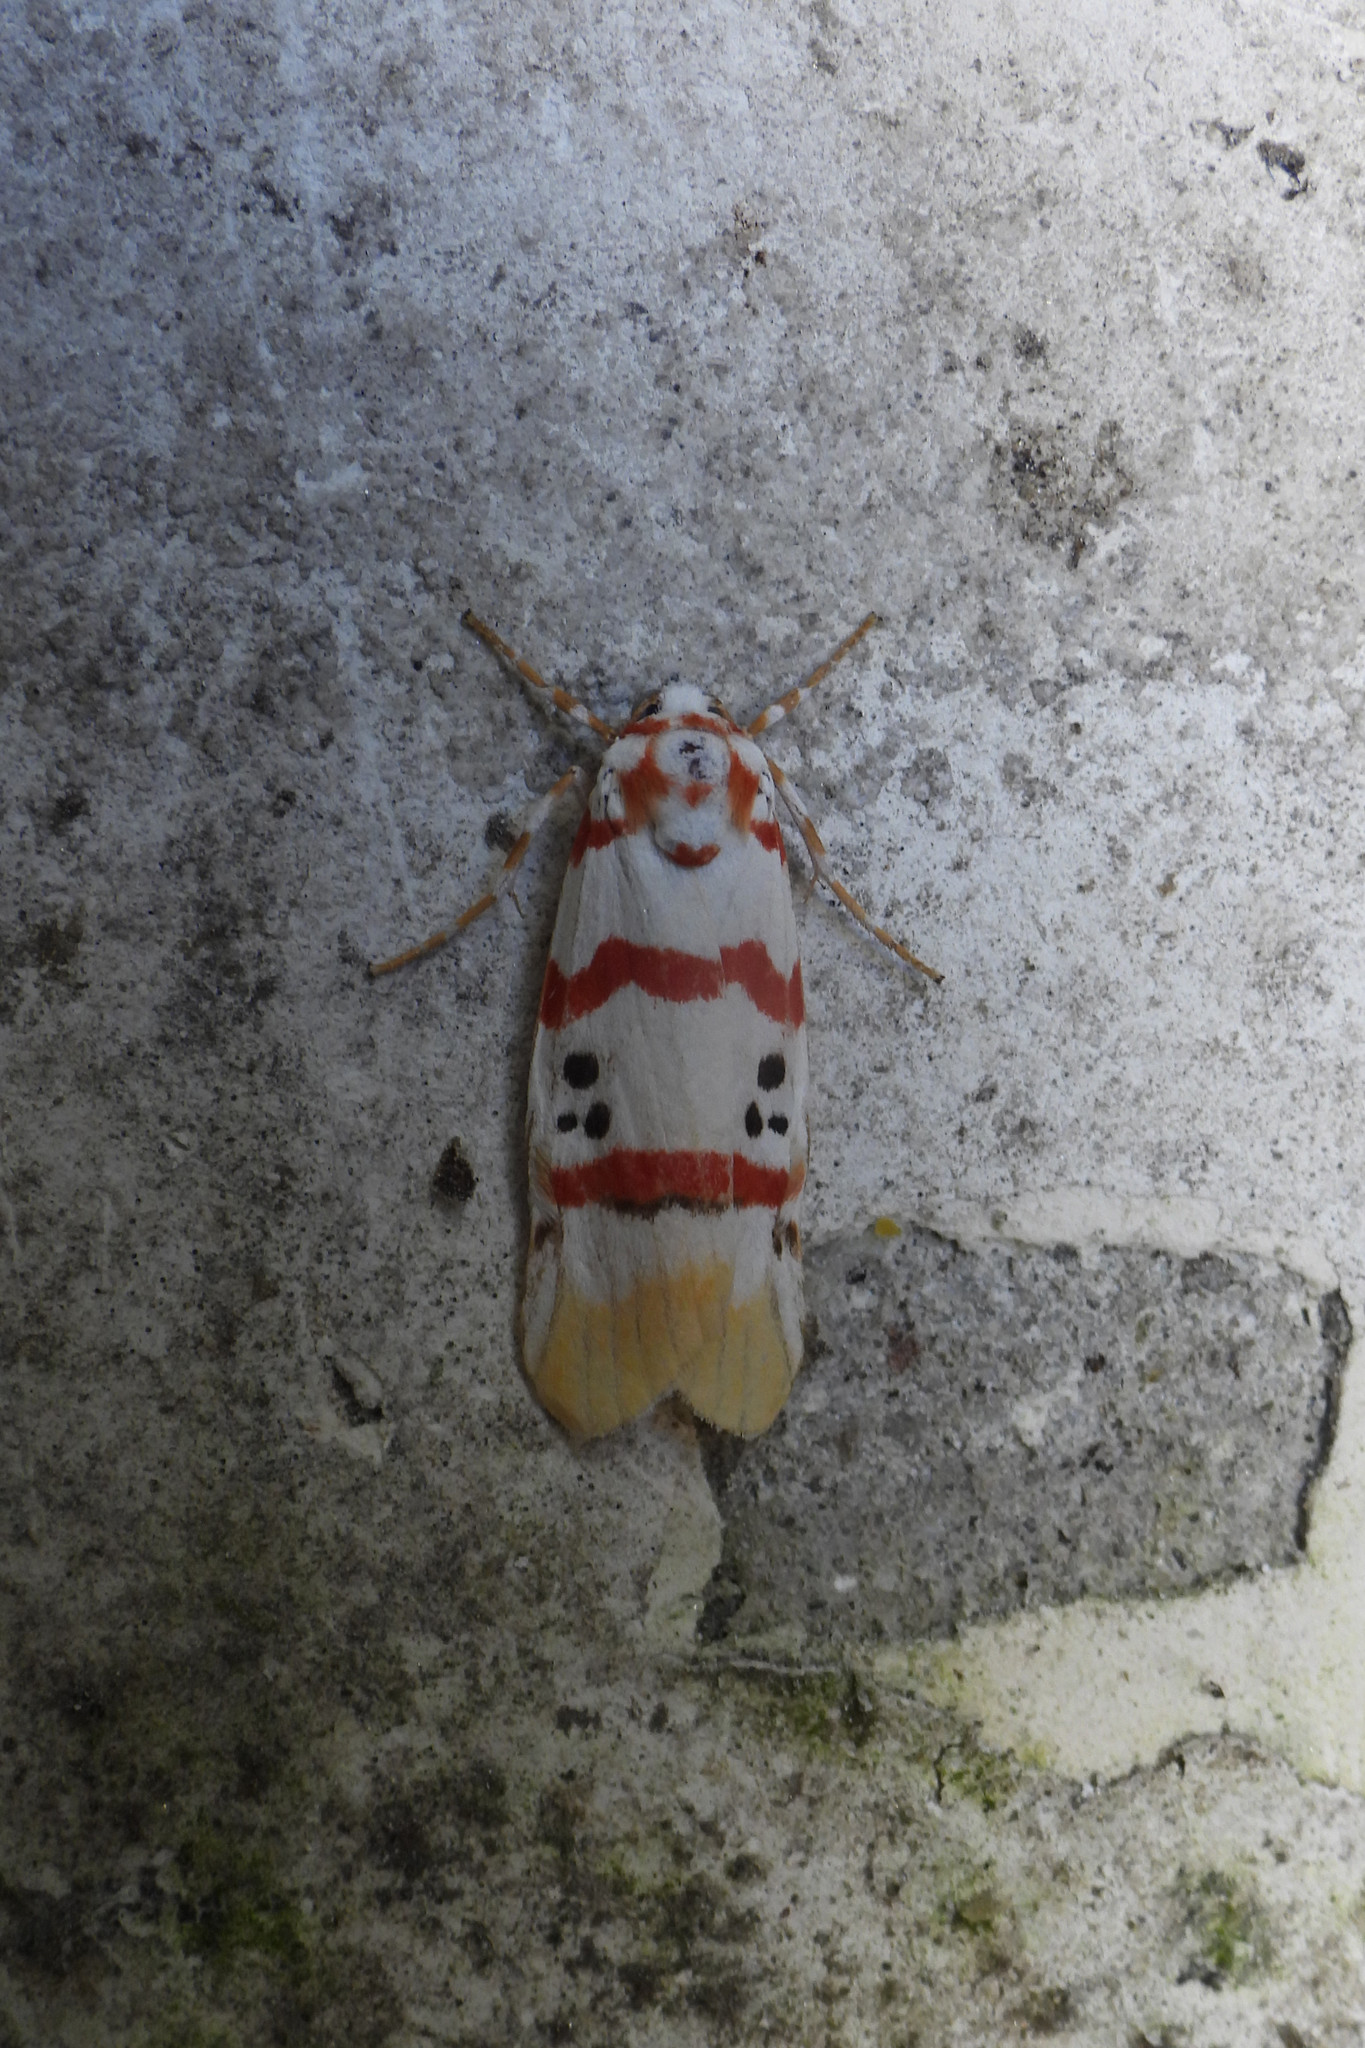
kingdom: Animalia
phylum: Arthropoda
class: Insecta
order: Lepidoptera
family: Erebidae
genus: Cyana
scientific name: Cyana neopuer
